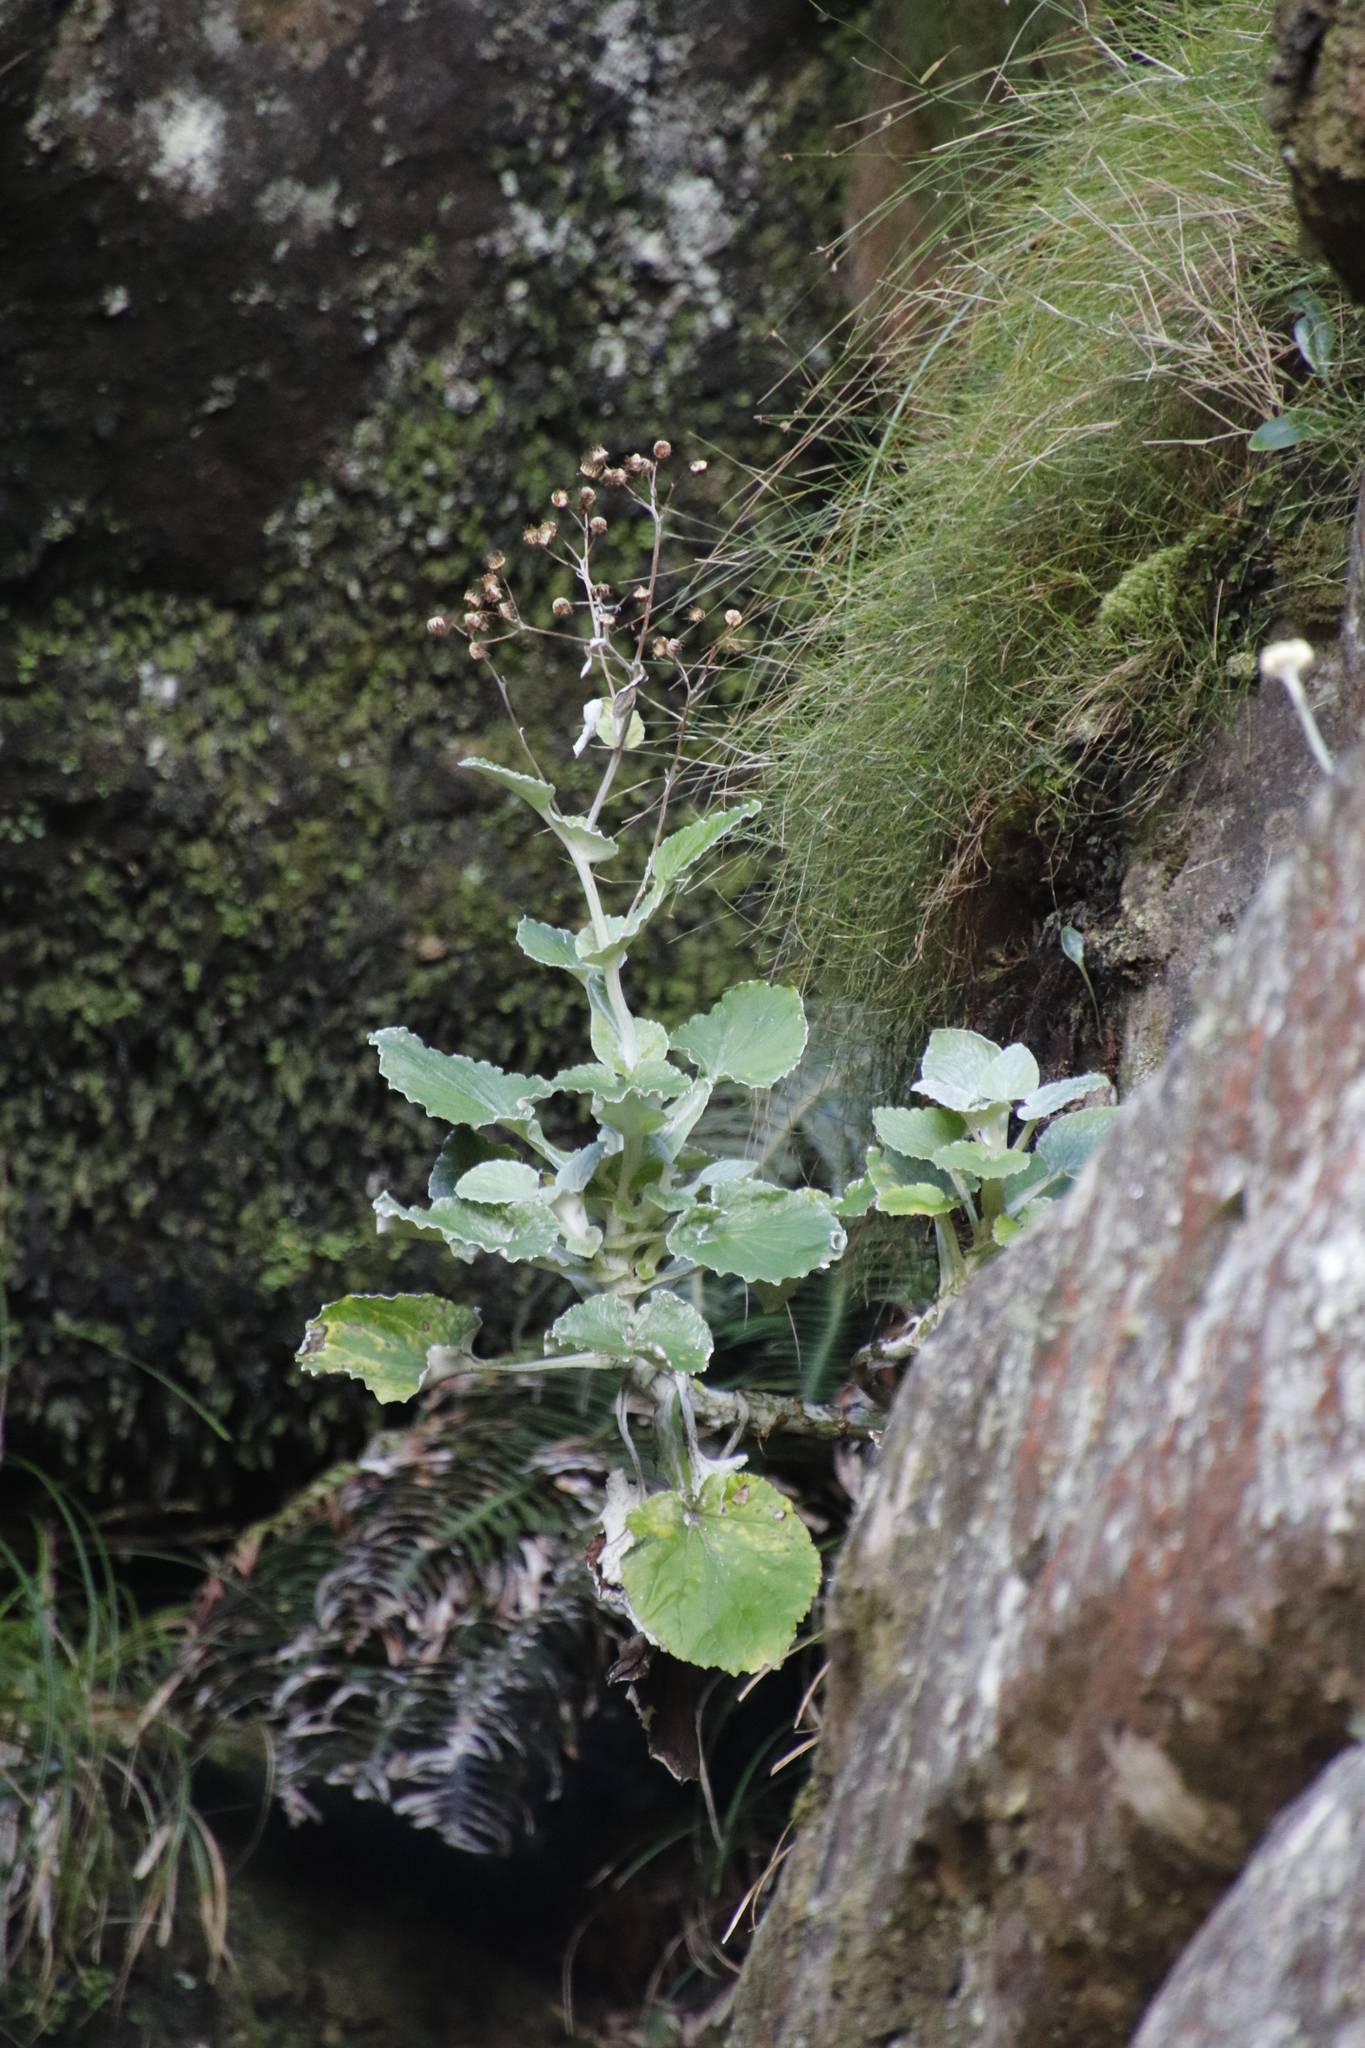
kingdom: Plantae
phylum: Tracheophyta
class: Magnoliopsida
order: Asterales
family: Asteraceae
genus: Senecio
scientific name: Senecio verbascifolius
